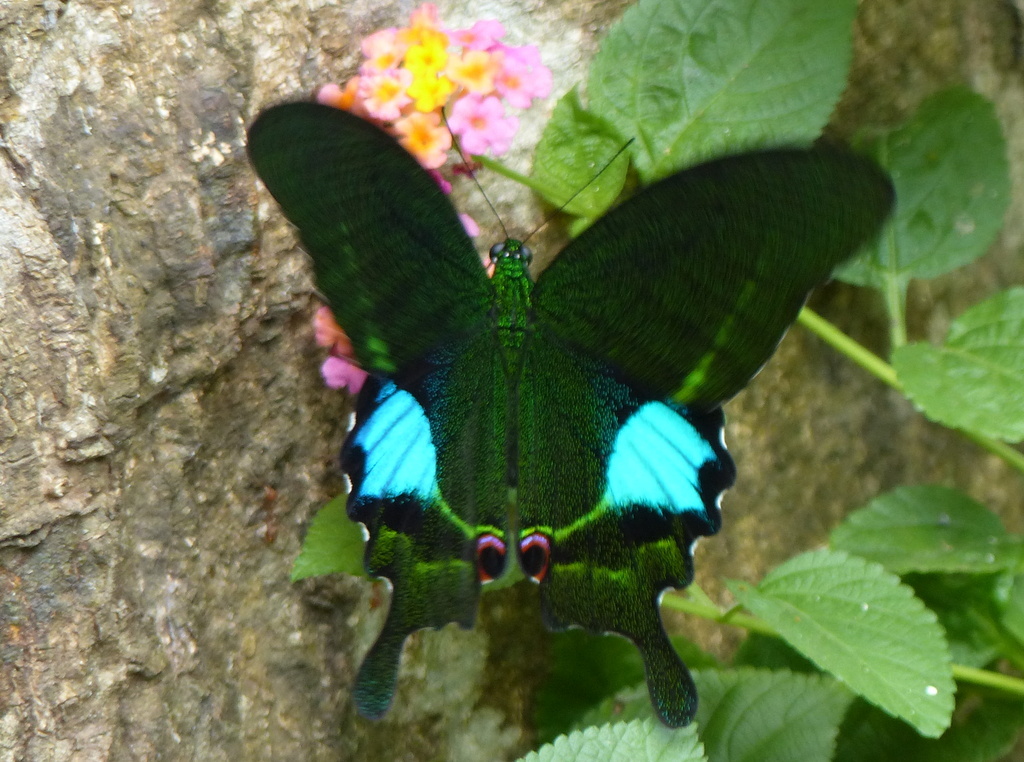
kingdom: Animalia
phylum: Arthropoda
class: Insecta
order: Lepidoptera
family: Papilionidae
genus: Papilio
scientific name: Papilio paris
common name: Paris peacock
